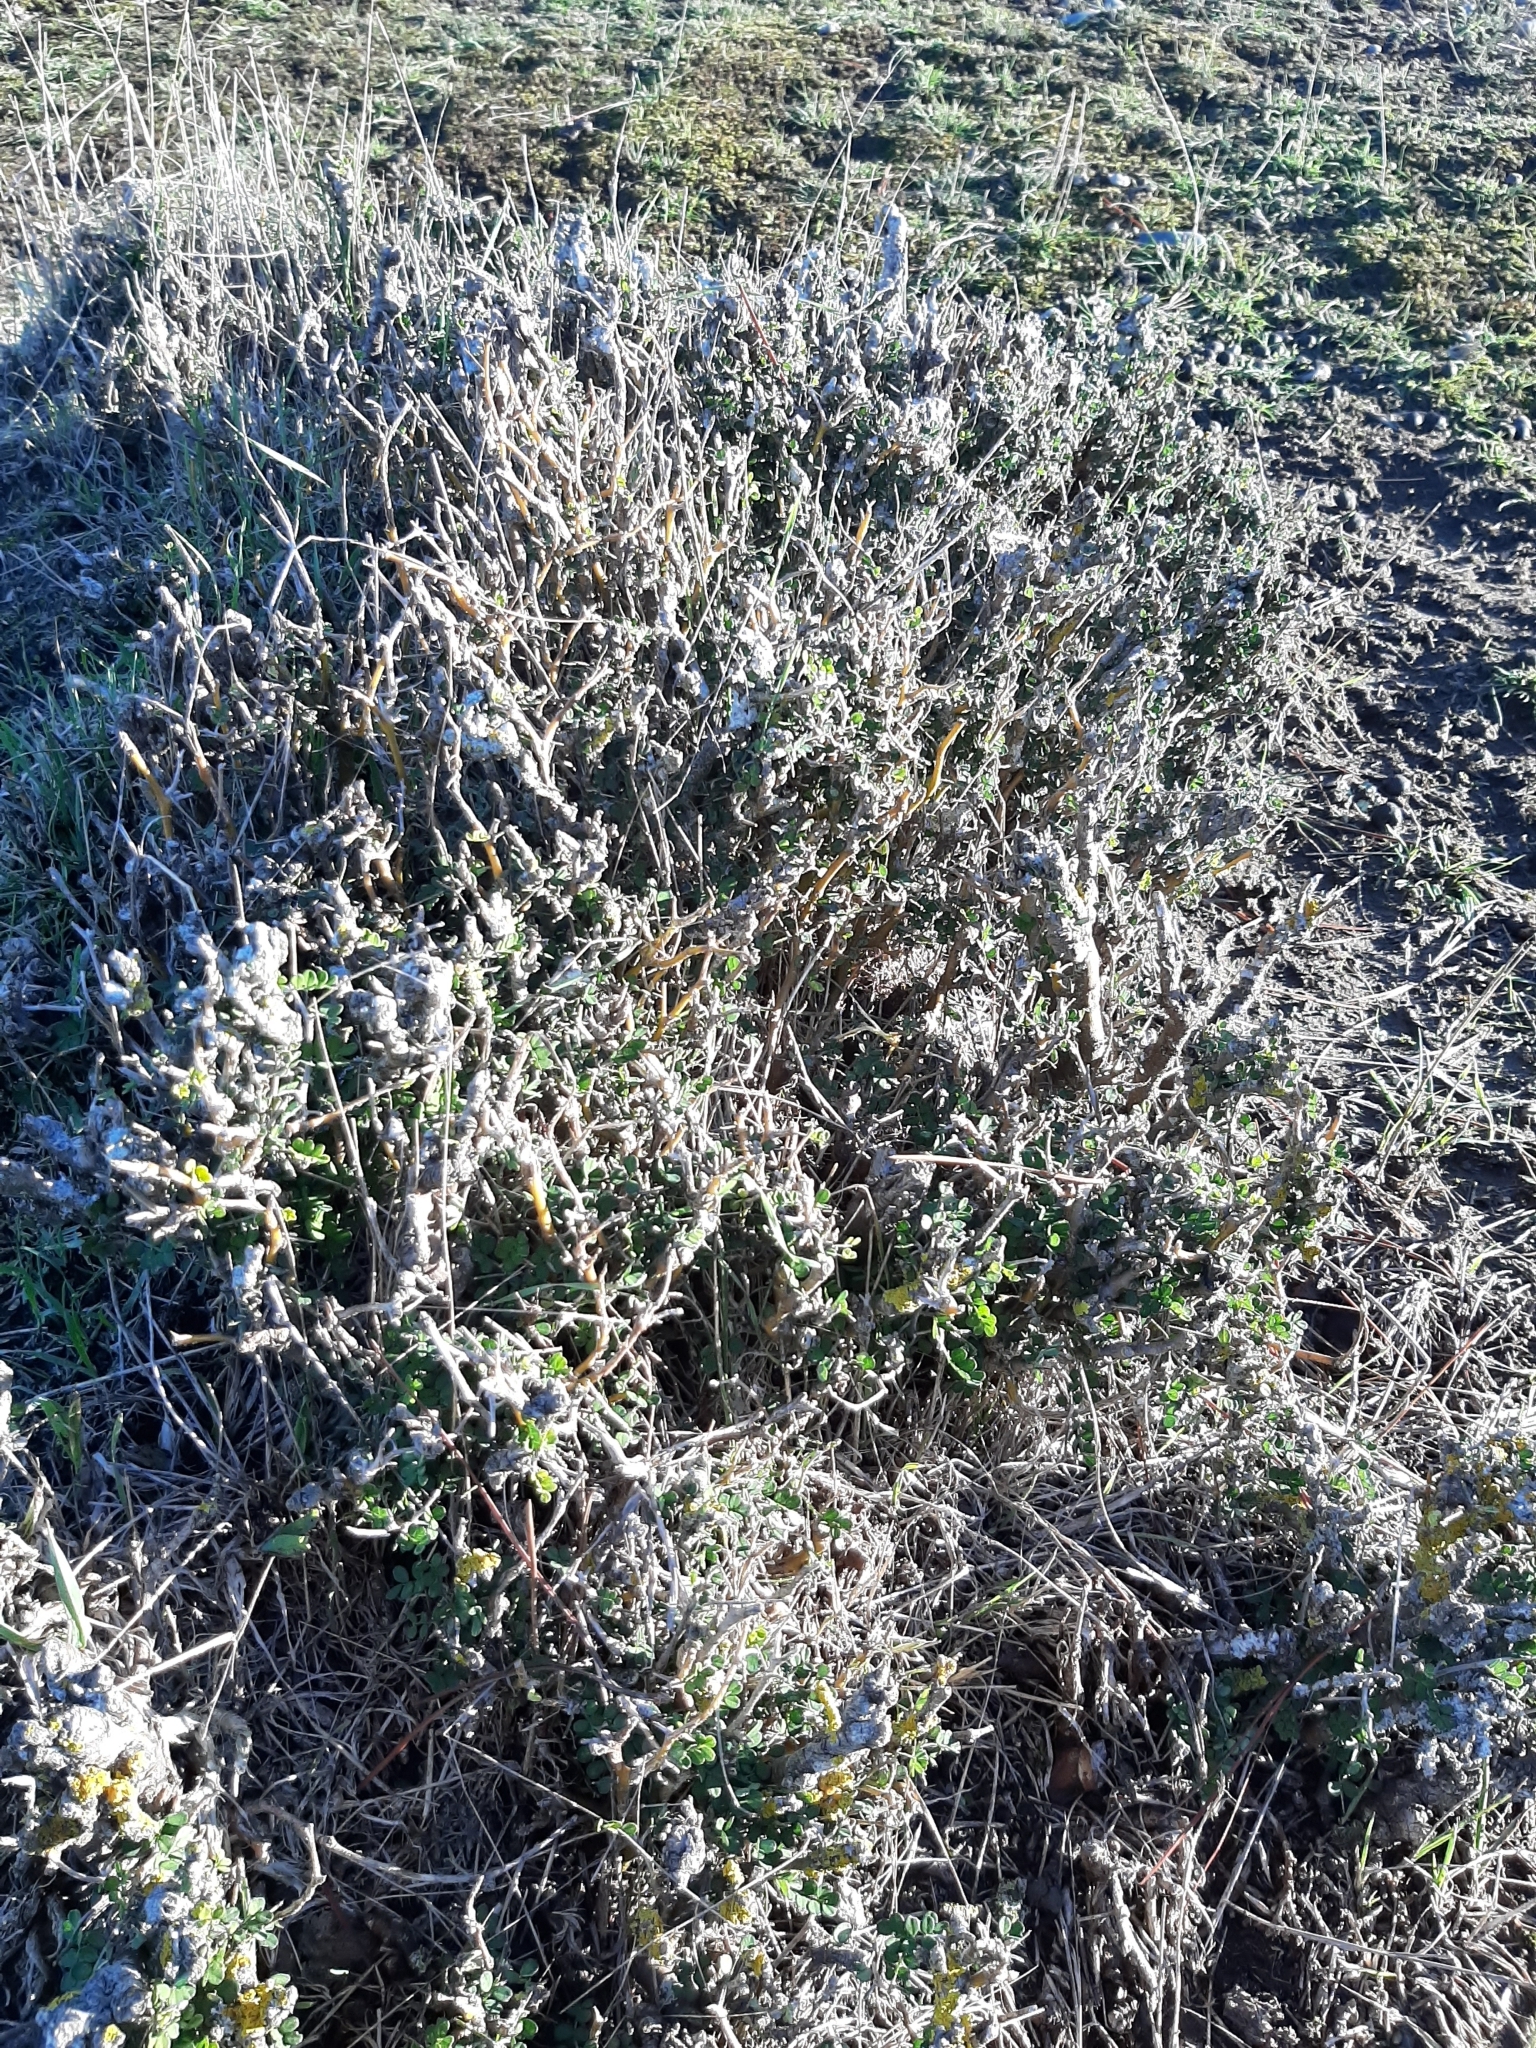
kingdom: Plantae
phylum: Tracheophyta
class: Magnoliopsida
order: Fabales
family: Fabaceae
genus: Sophora
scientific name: Sophora prostrata
